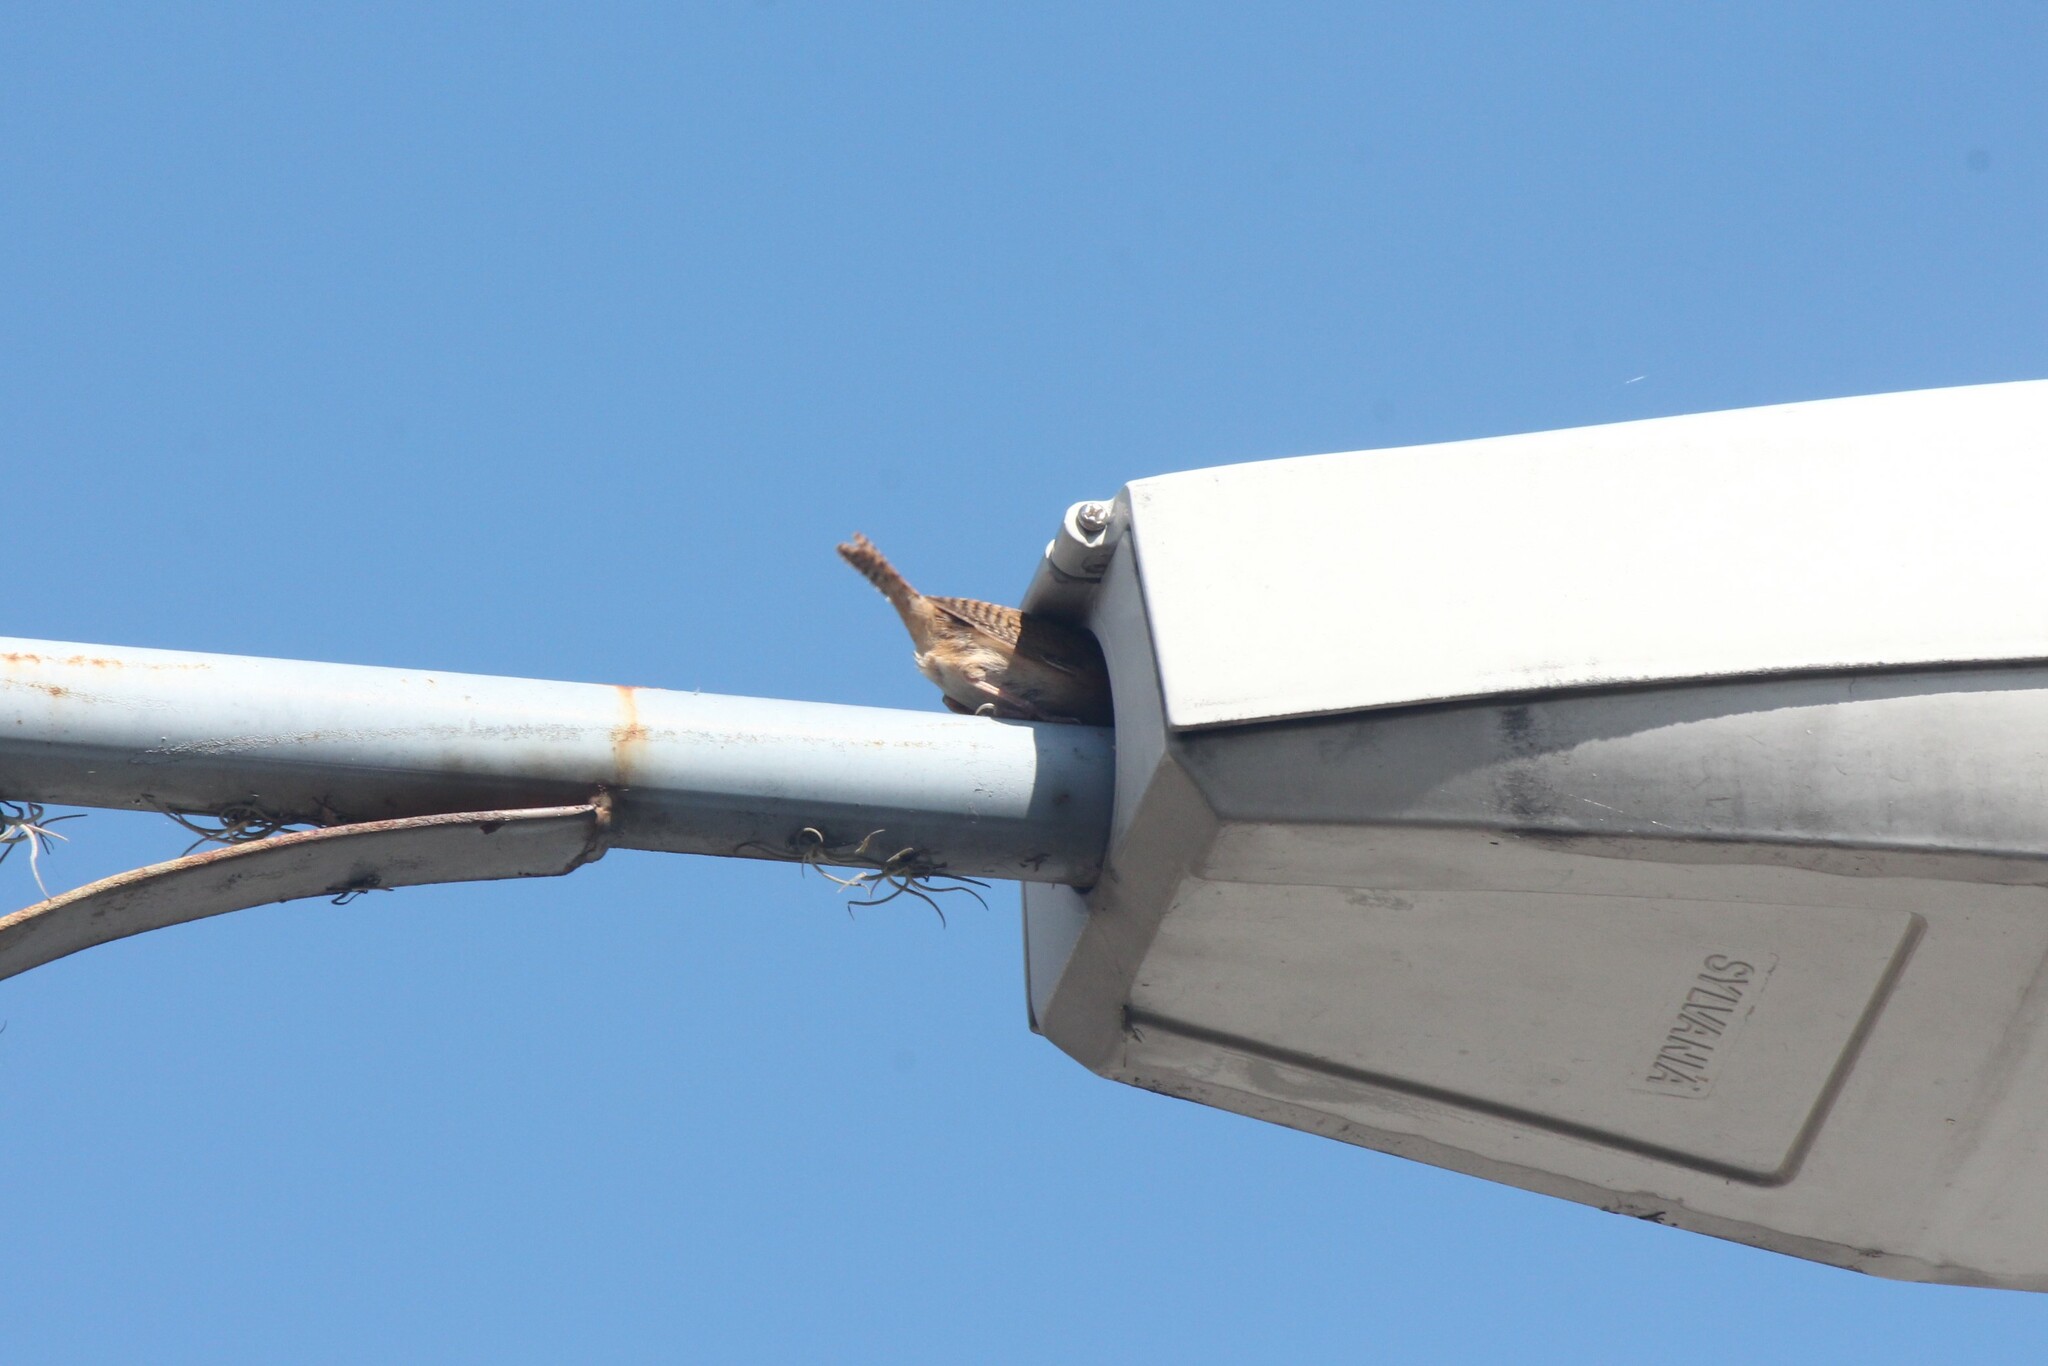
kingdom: Animalia
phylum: Chordata
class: Aves
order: Passeriformes
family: Troglodytidae
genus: Troglodytes
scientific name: Troglodytes aedon
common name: House wren
